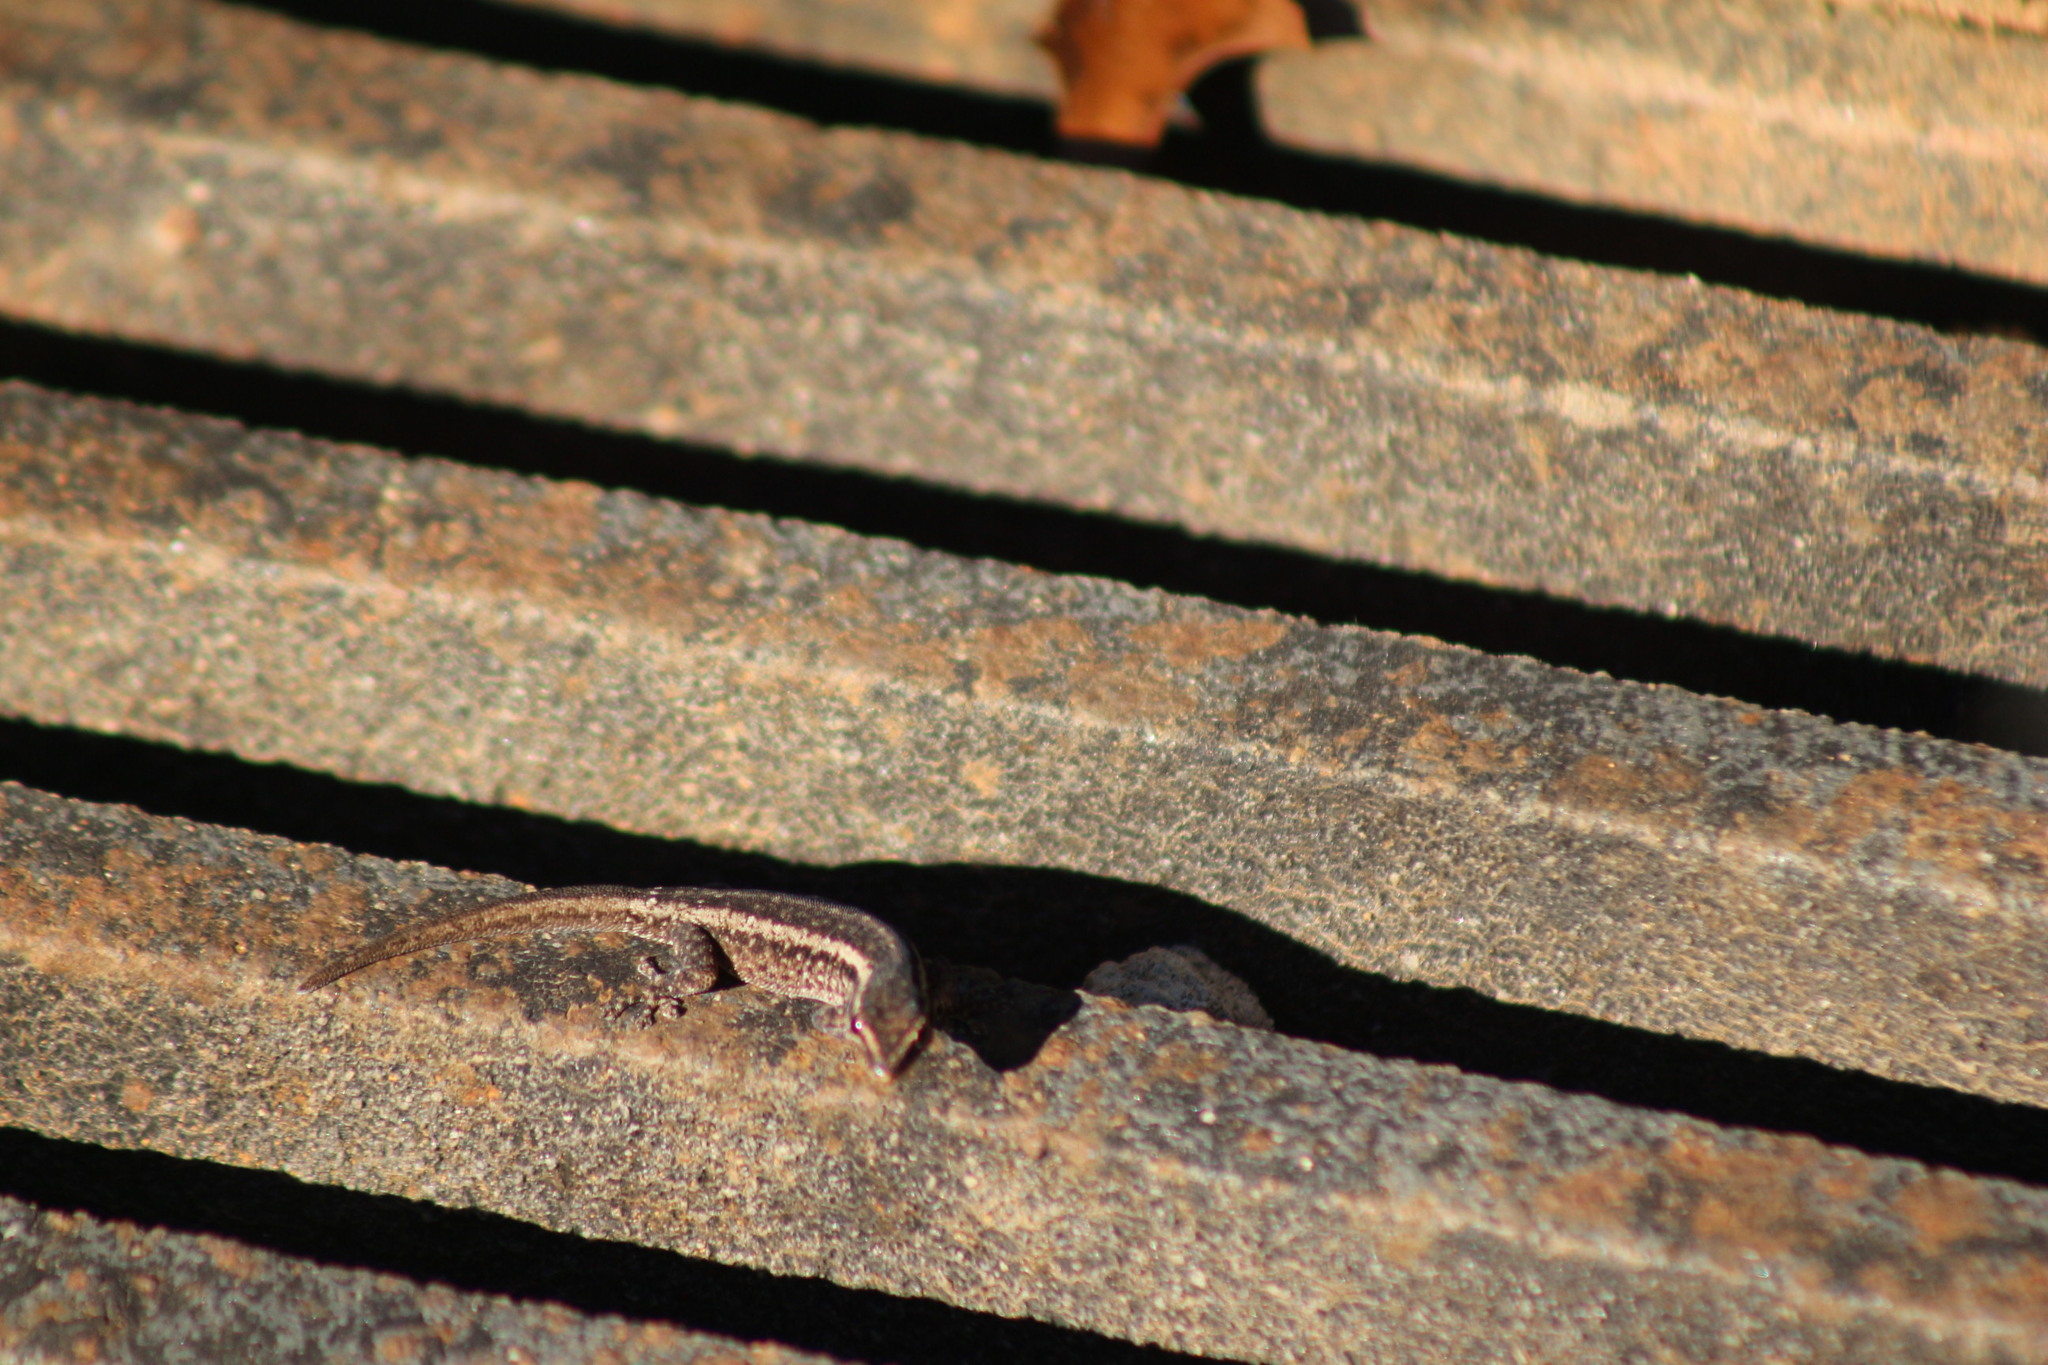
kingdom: Animalia
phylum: Chordata
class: Squamata
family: Gekkonidae
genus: Lygodactylus
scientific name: Lygodactylus capensis
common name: Cape dwarf gecko
